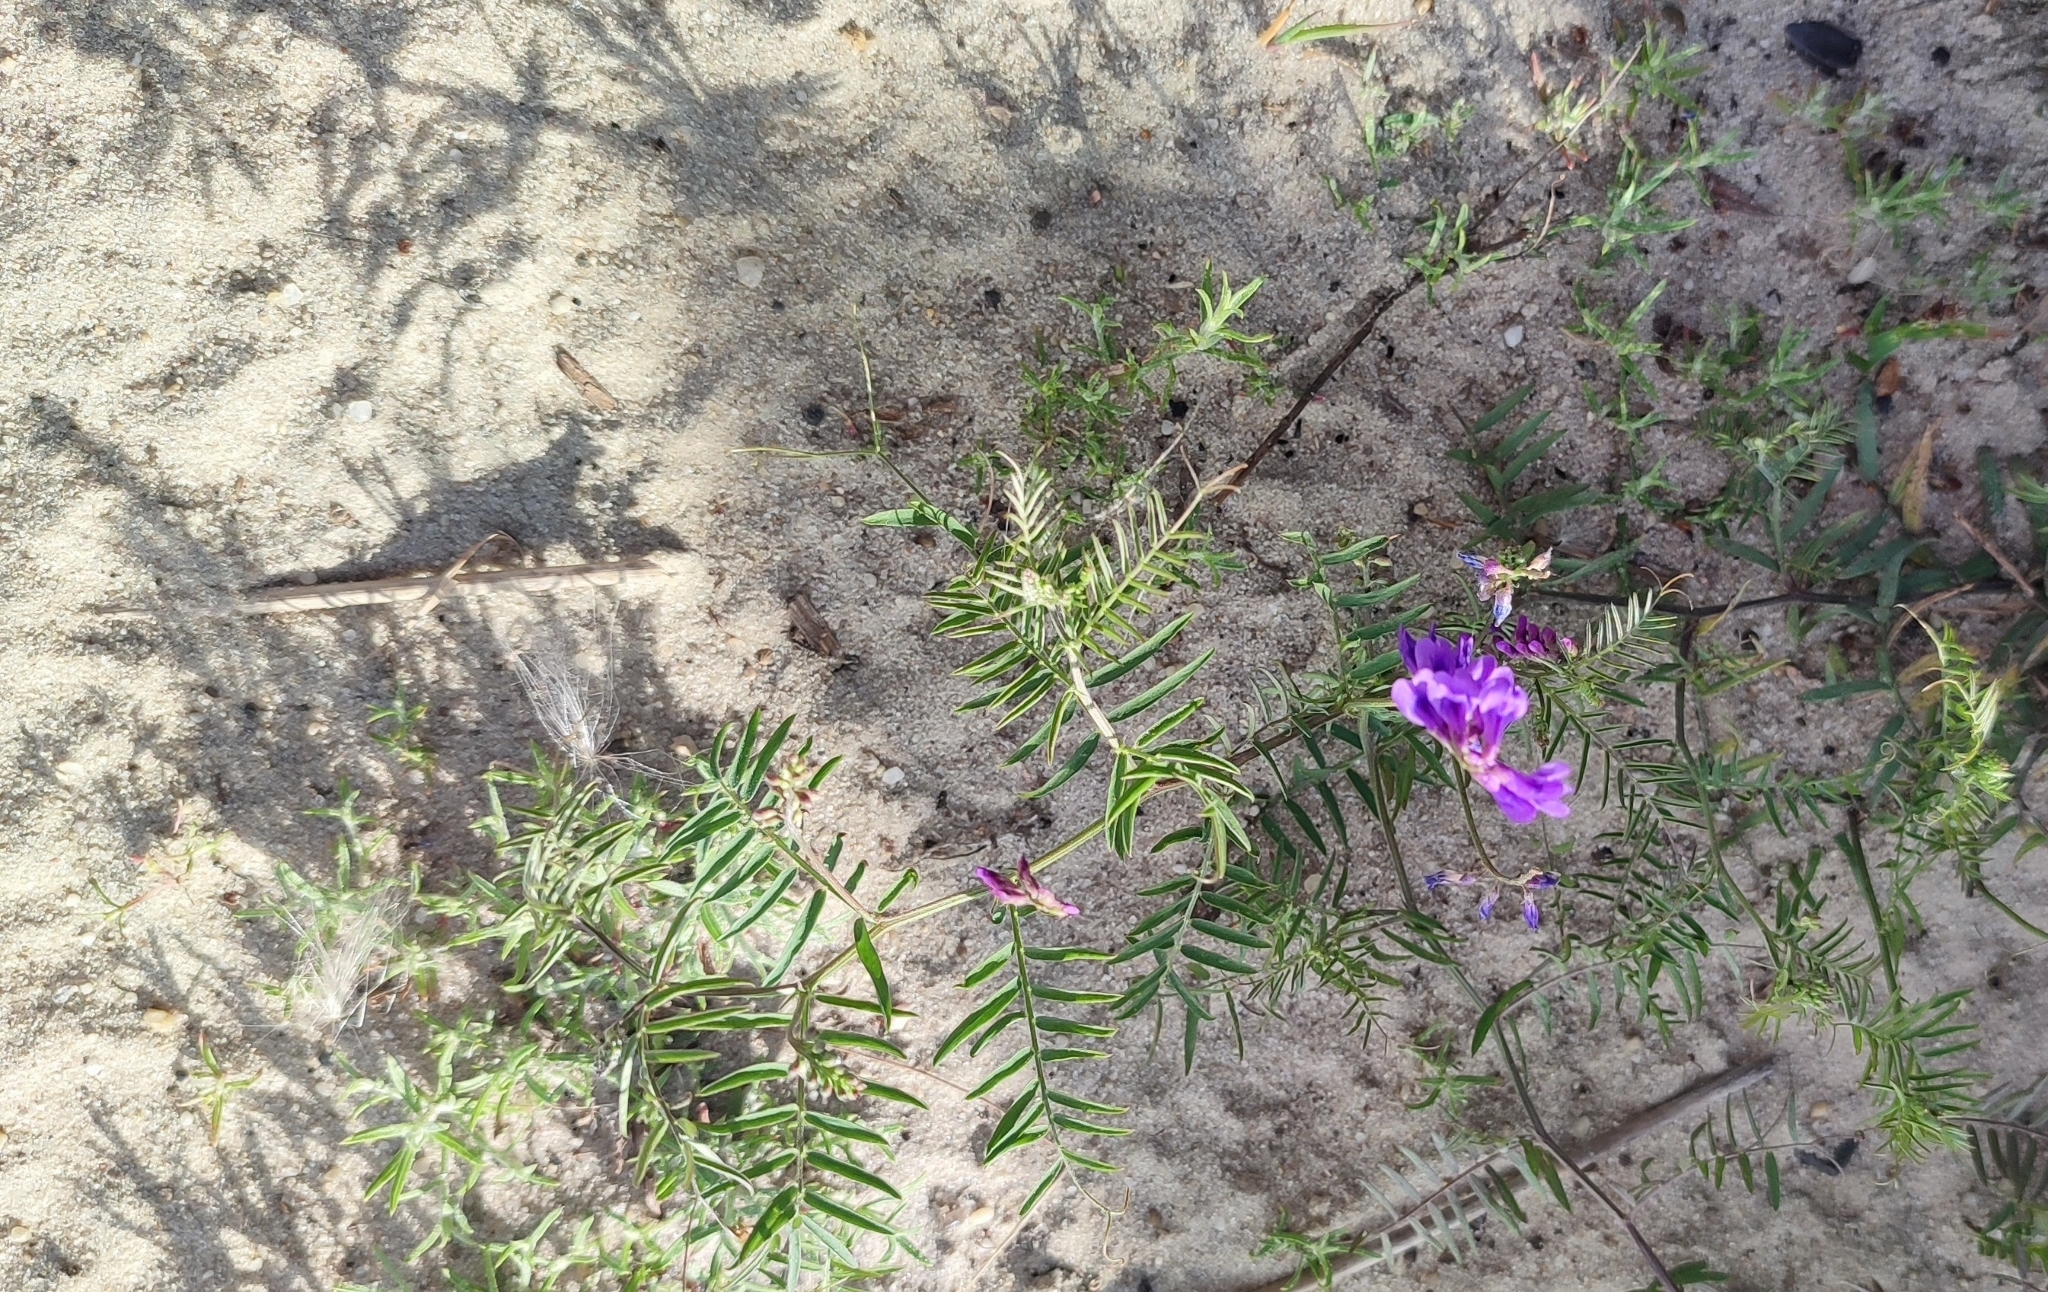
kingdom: Plantae
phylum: Tracheophyta
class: Magnoliopsida
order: Fabales
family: Fabaceae
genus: Vicia
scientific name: Vicia cracca
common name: Bird vetch
